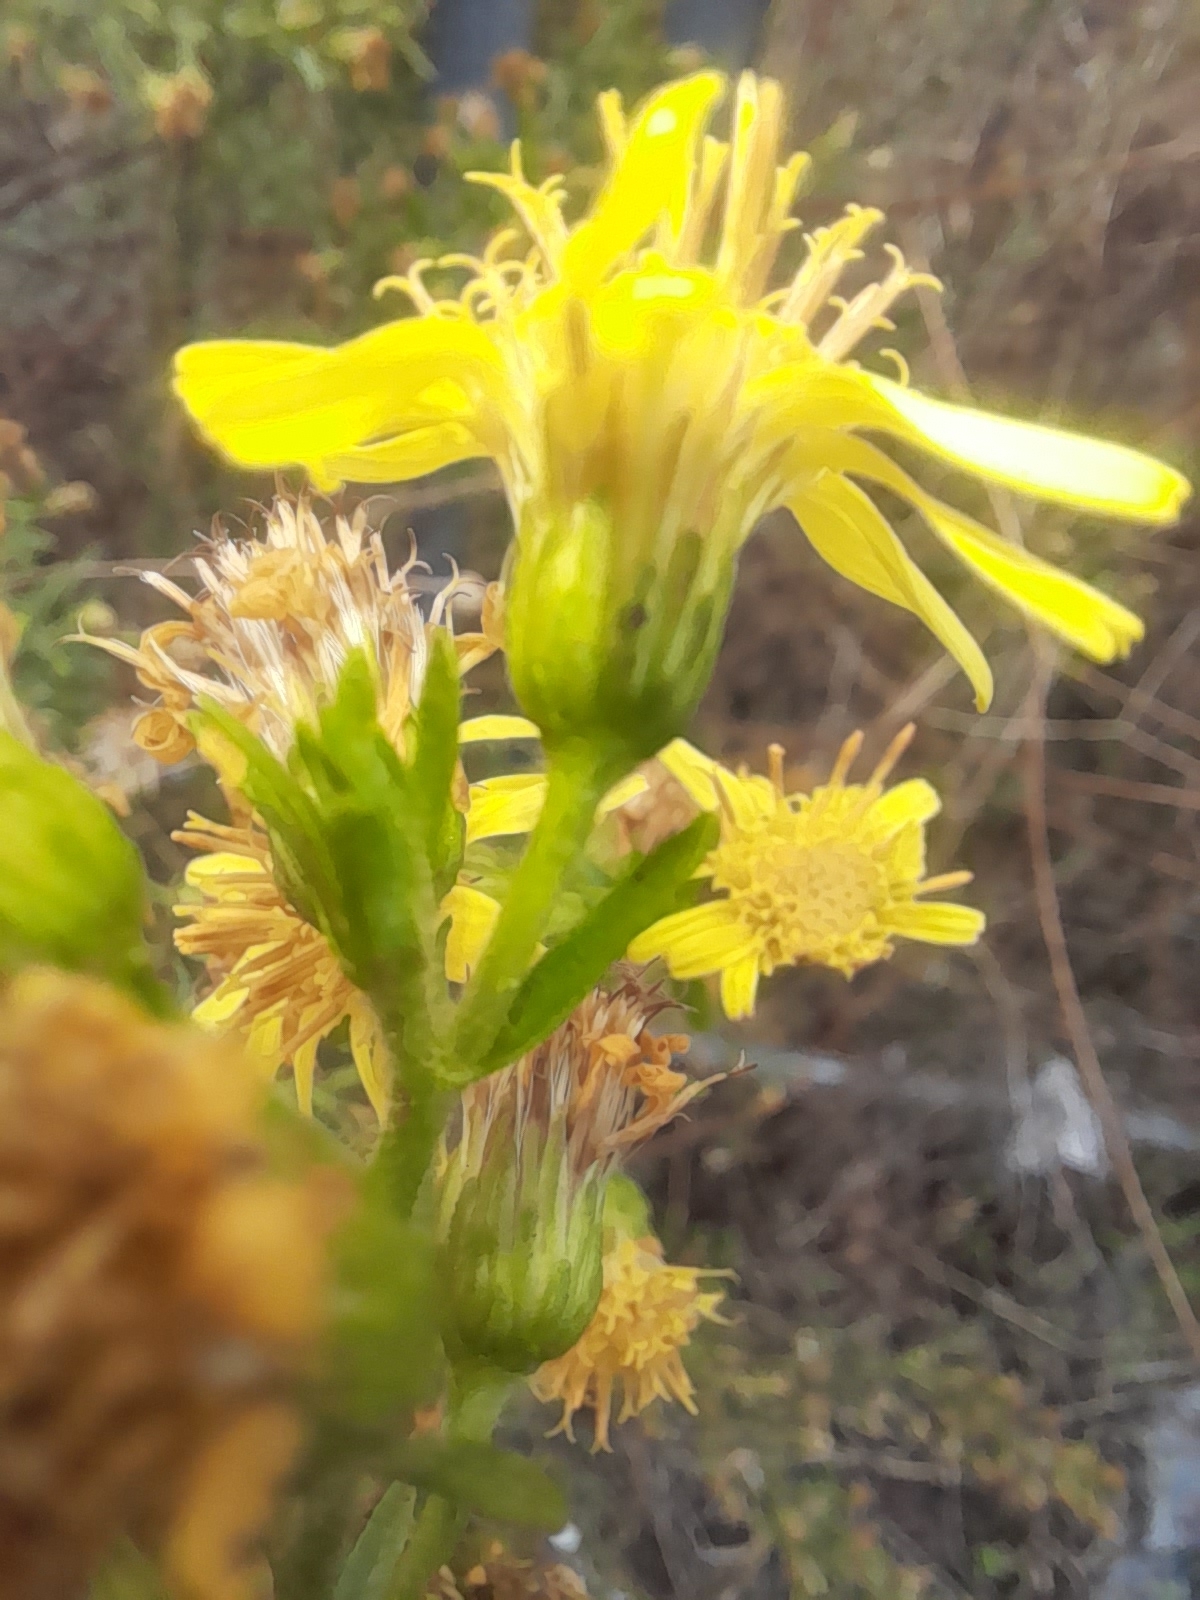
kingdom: Plantae
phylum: Tracheophyta
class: Magnoliopsida
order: Asterales
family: Asteraceae
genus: Dittrichia
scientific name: Dittrichia viscosa
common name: Woody fleabane
